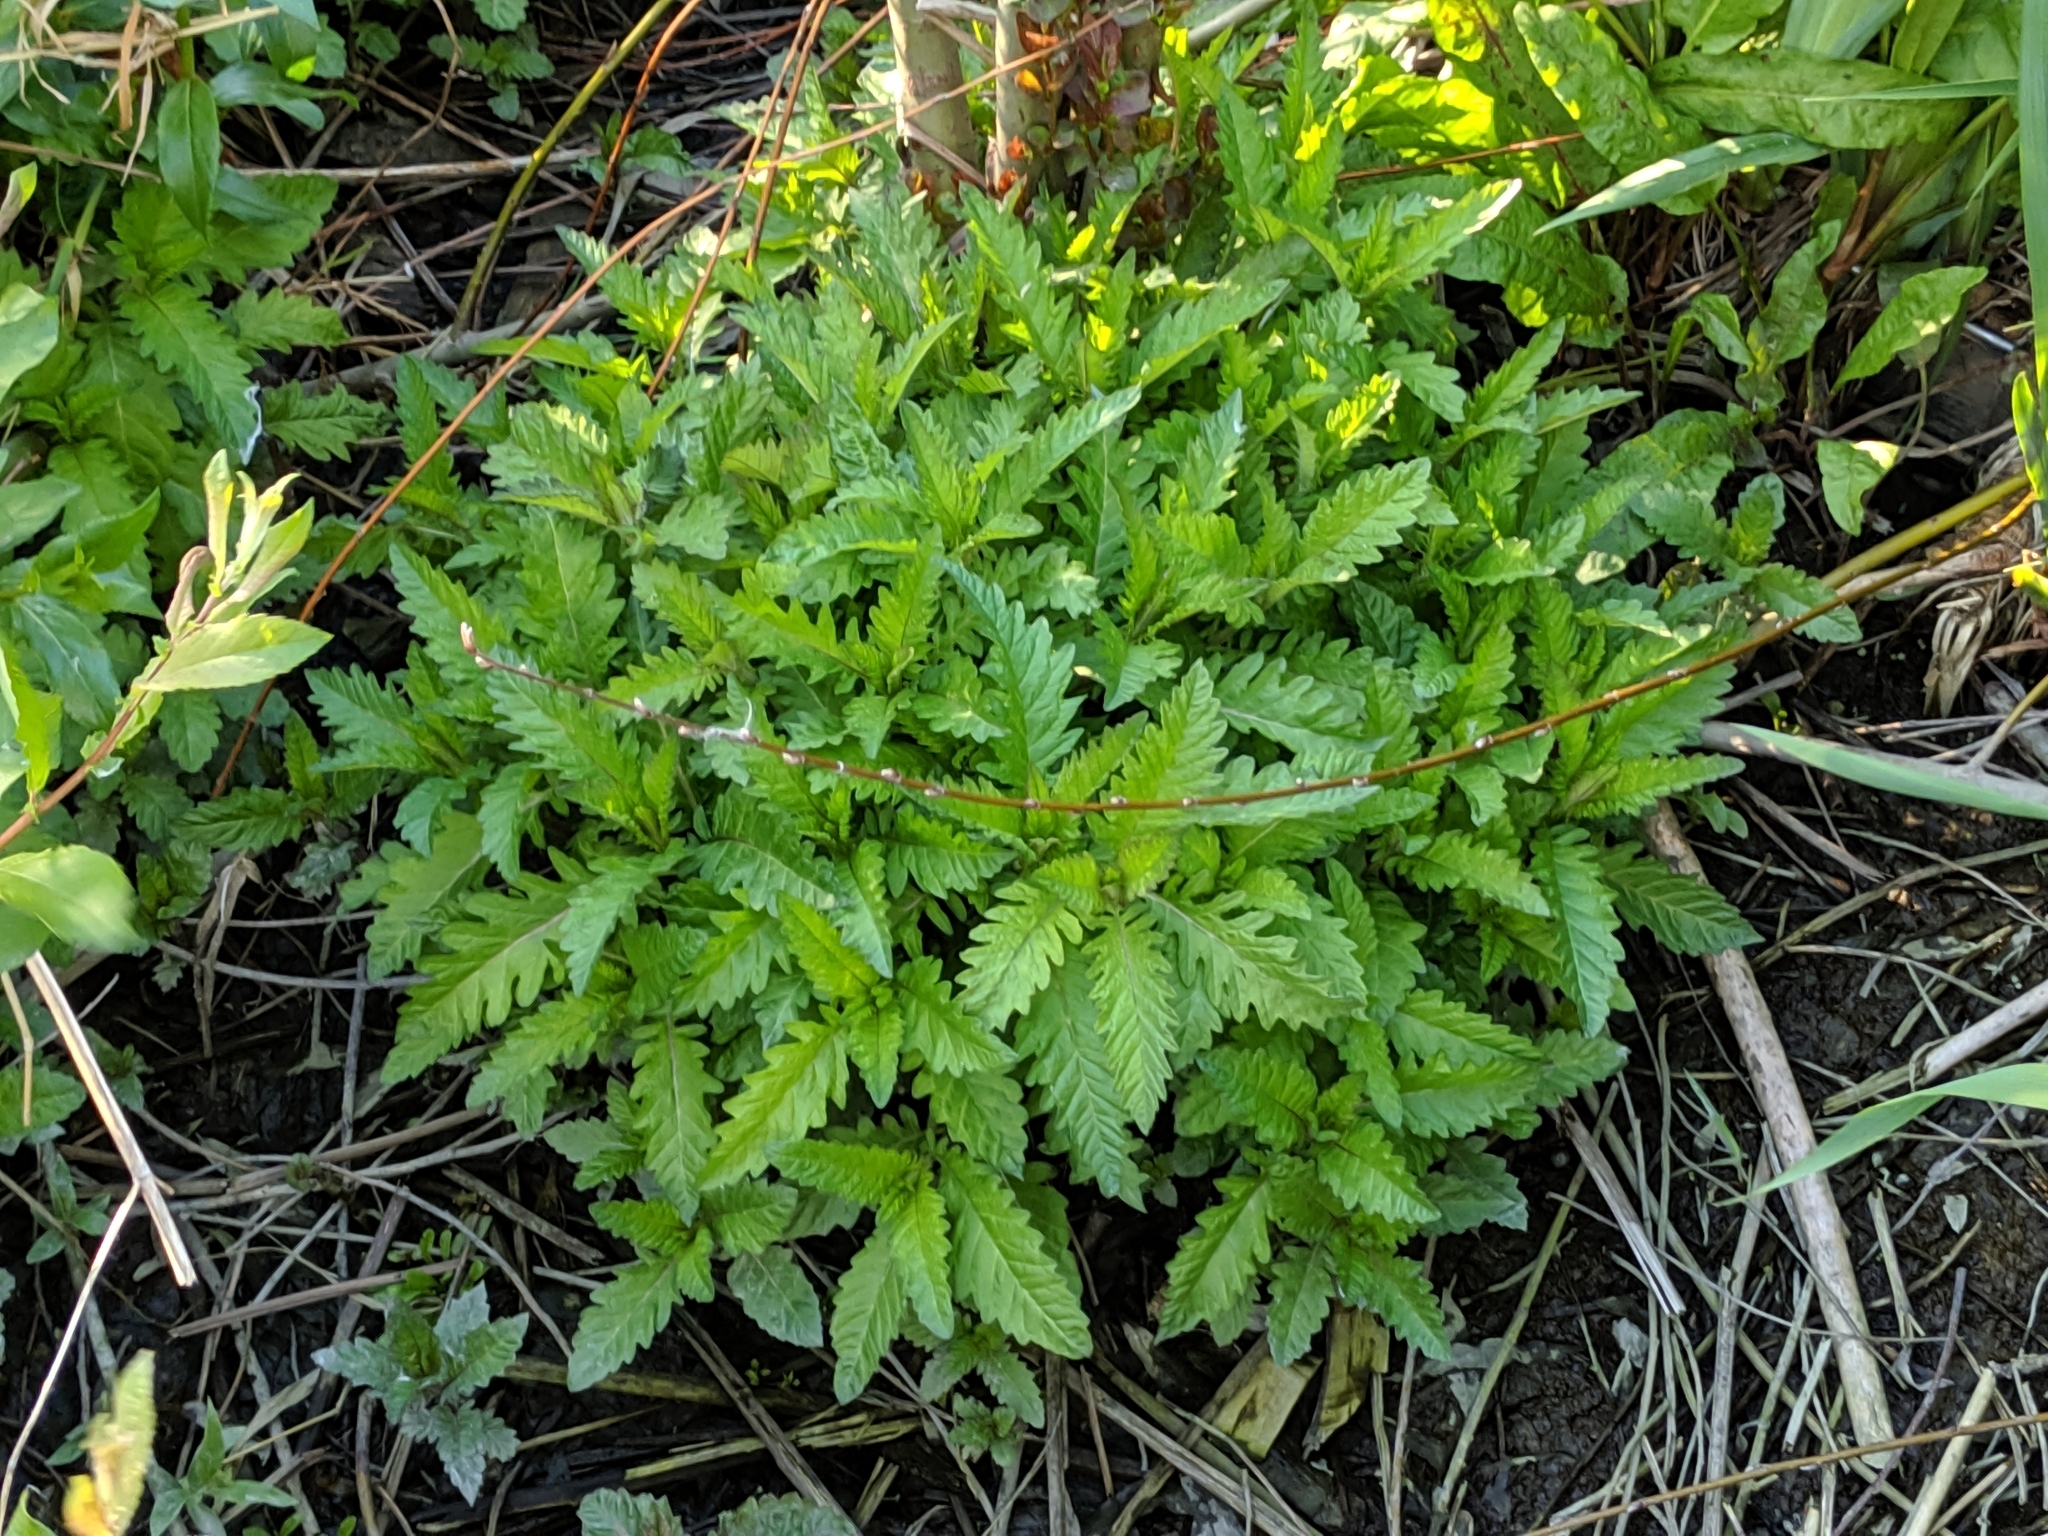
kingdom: Plantae
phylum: Tracheophyta
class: Magnoliopsida
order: Lamiales
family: Lamiaceae
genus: Lycopus
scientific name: Lycopus europaeus
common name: European bugleweed
